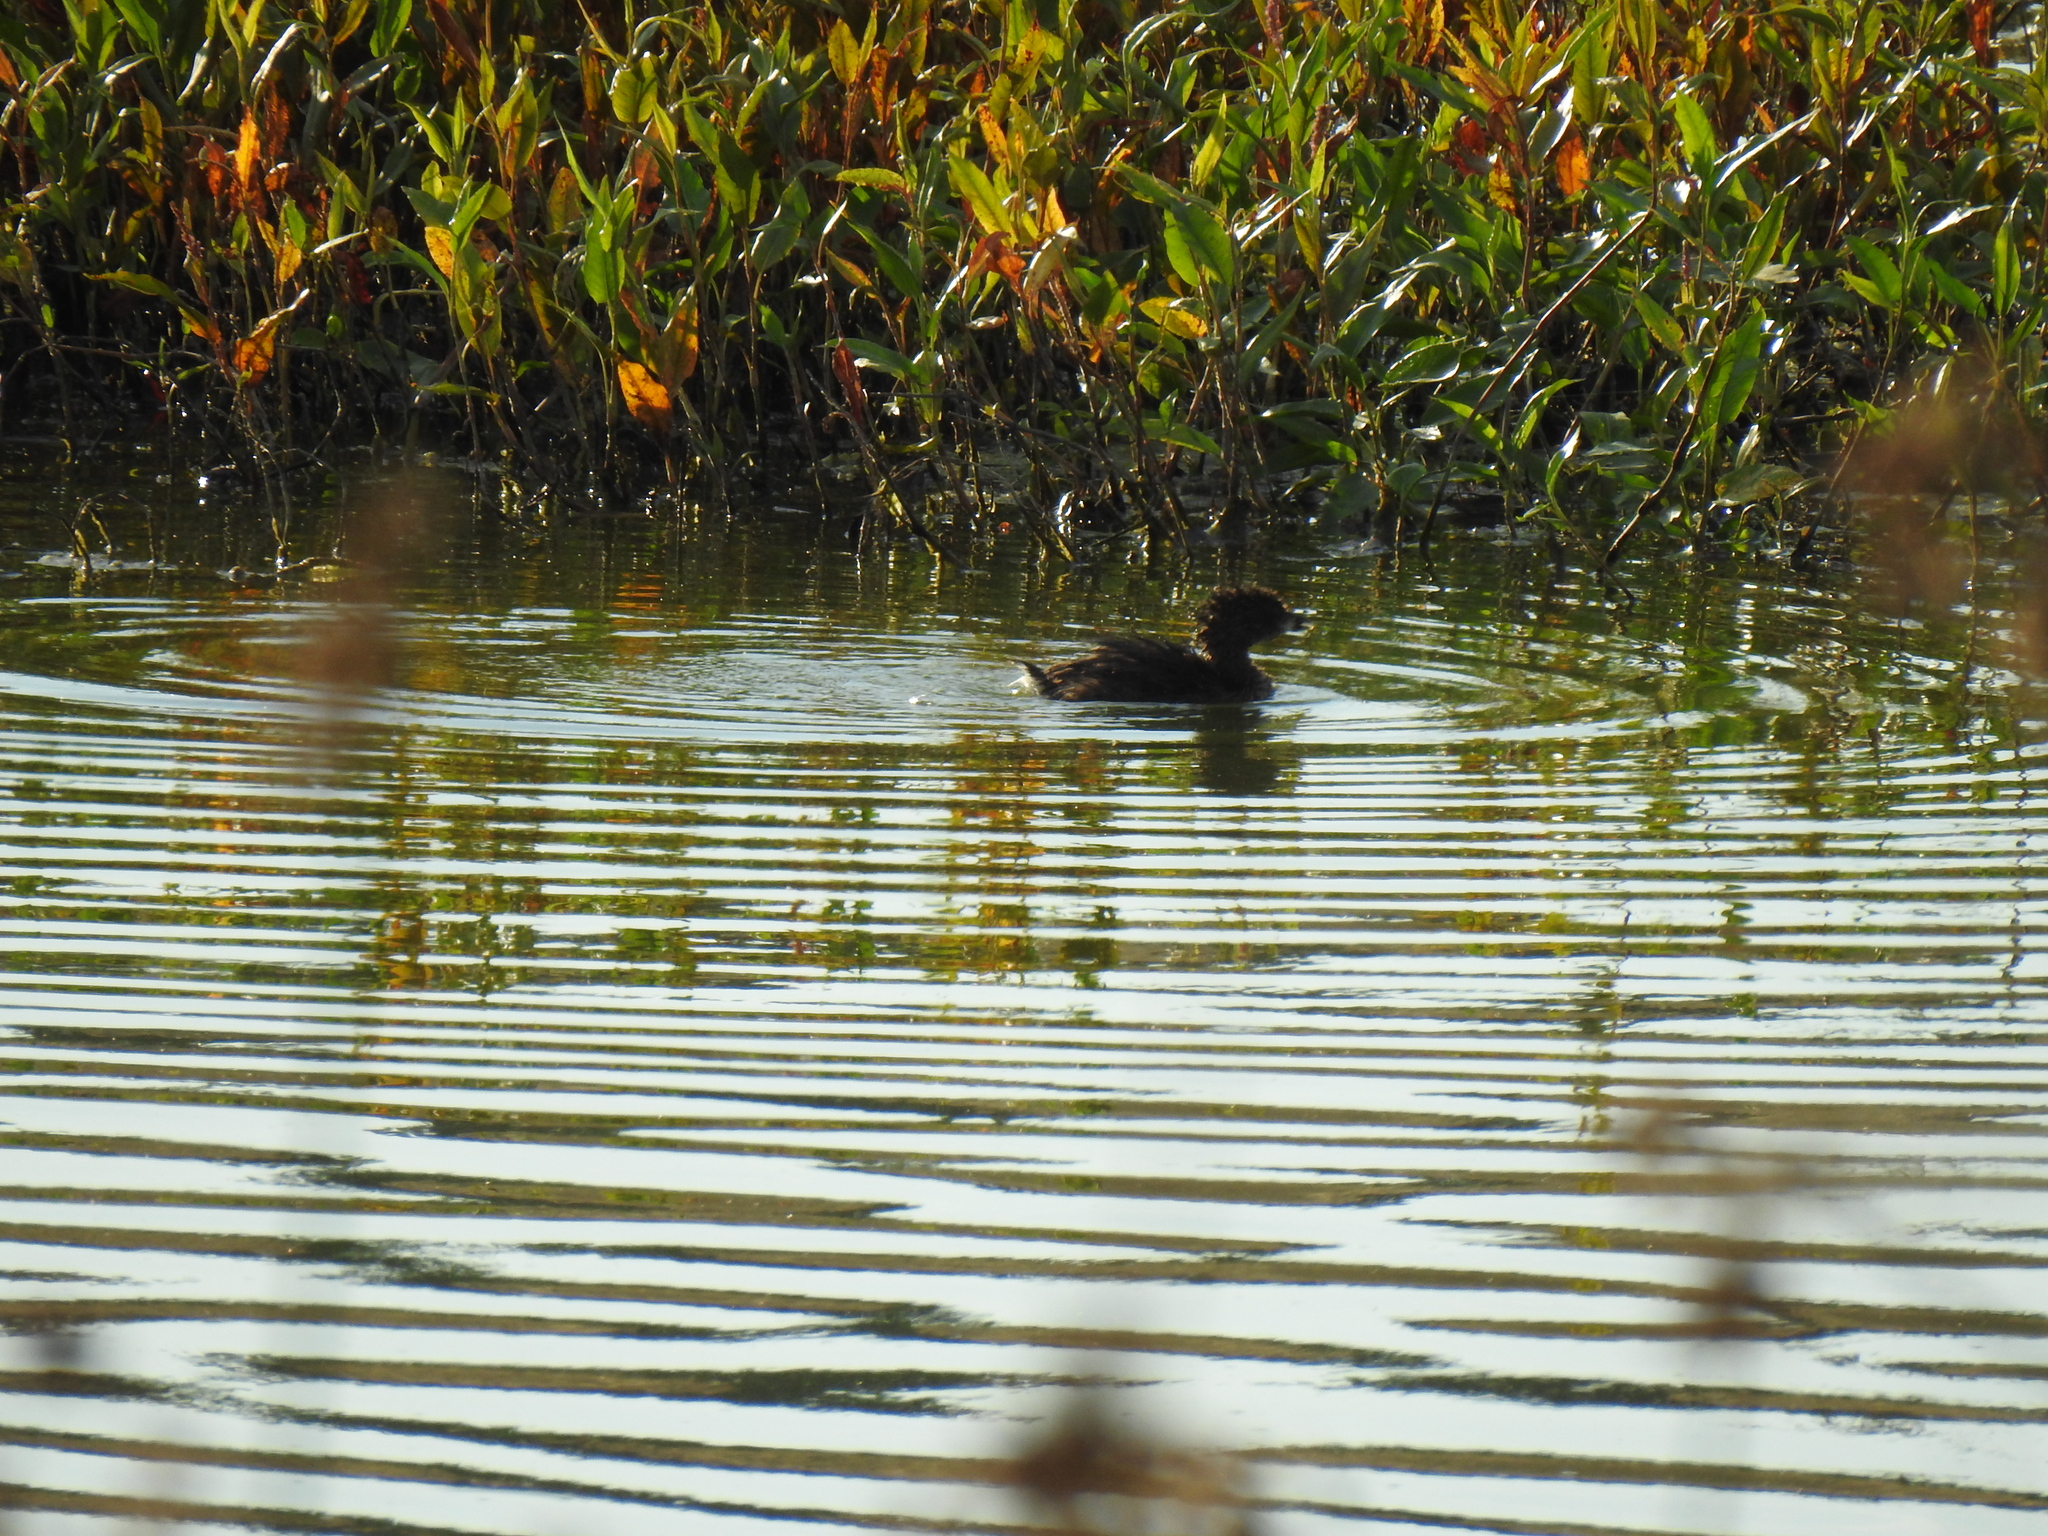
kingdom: Animalia
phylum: Chordata
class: Aves
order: Podicipediformes
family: Podicipedidae
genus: Podilymbus
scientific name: Podilymbus podiceps
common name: Pied-billed grebe
